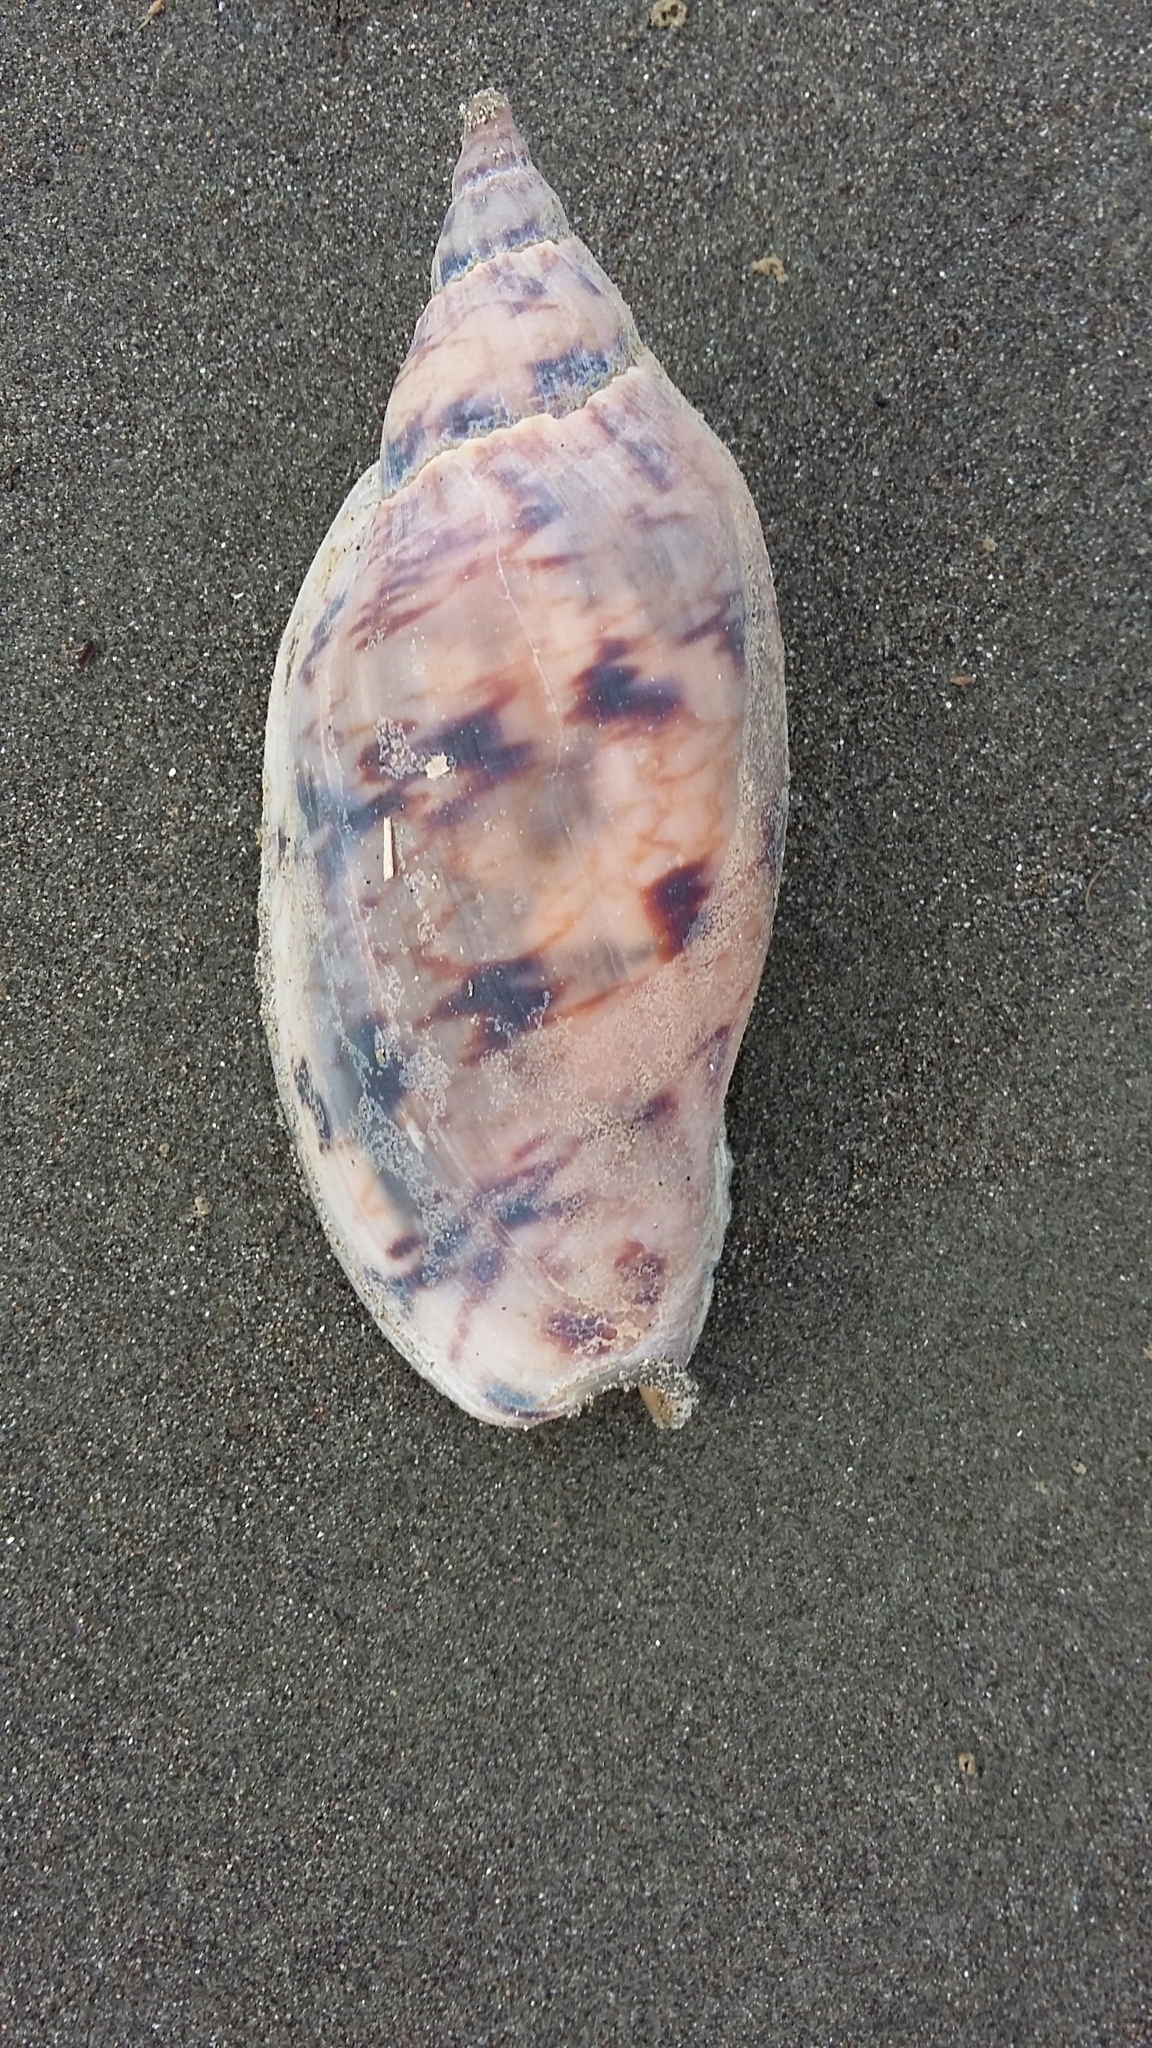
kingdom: Animalia
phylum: Mollusca
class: Gastropoda
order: Neogastropoda
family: Volutidae
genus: Alcithoe
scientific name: Alcithoe arabica
